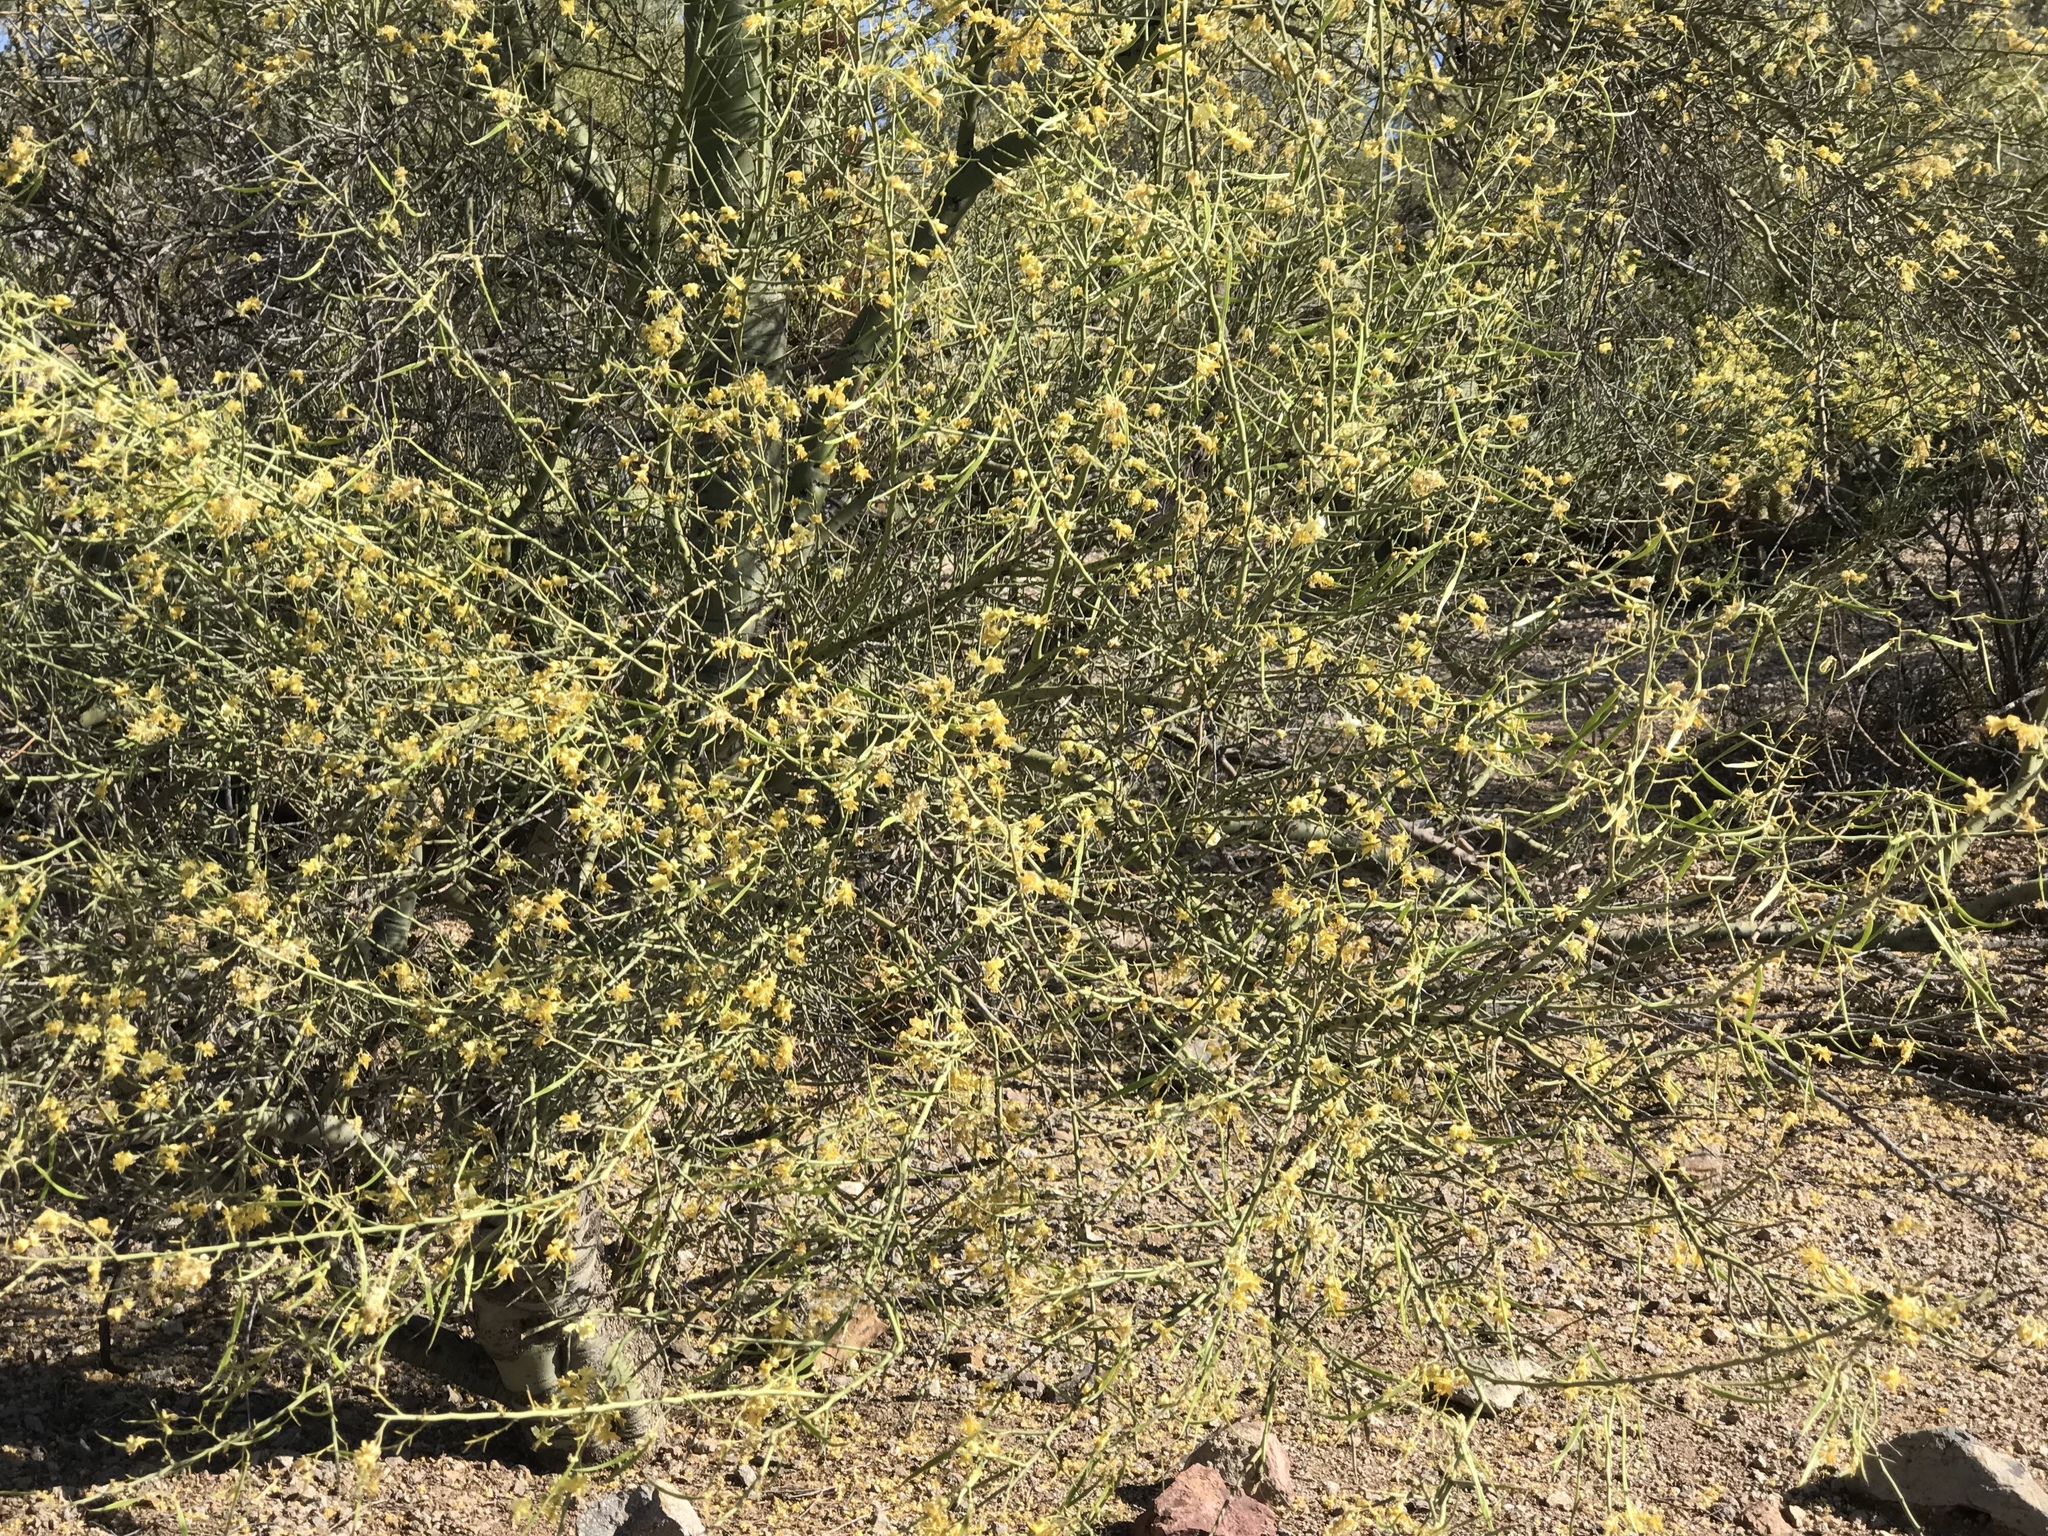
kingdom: Plantae
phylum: Tracheophyta
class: Magnoliopsida
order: Fabales
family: Fabaceae
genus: Vachellia
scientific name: Vachellia constricta
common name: Mescat acacia
